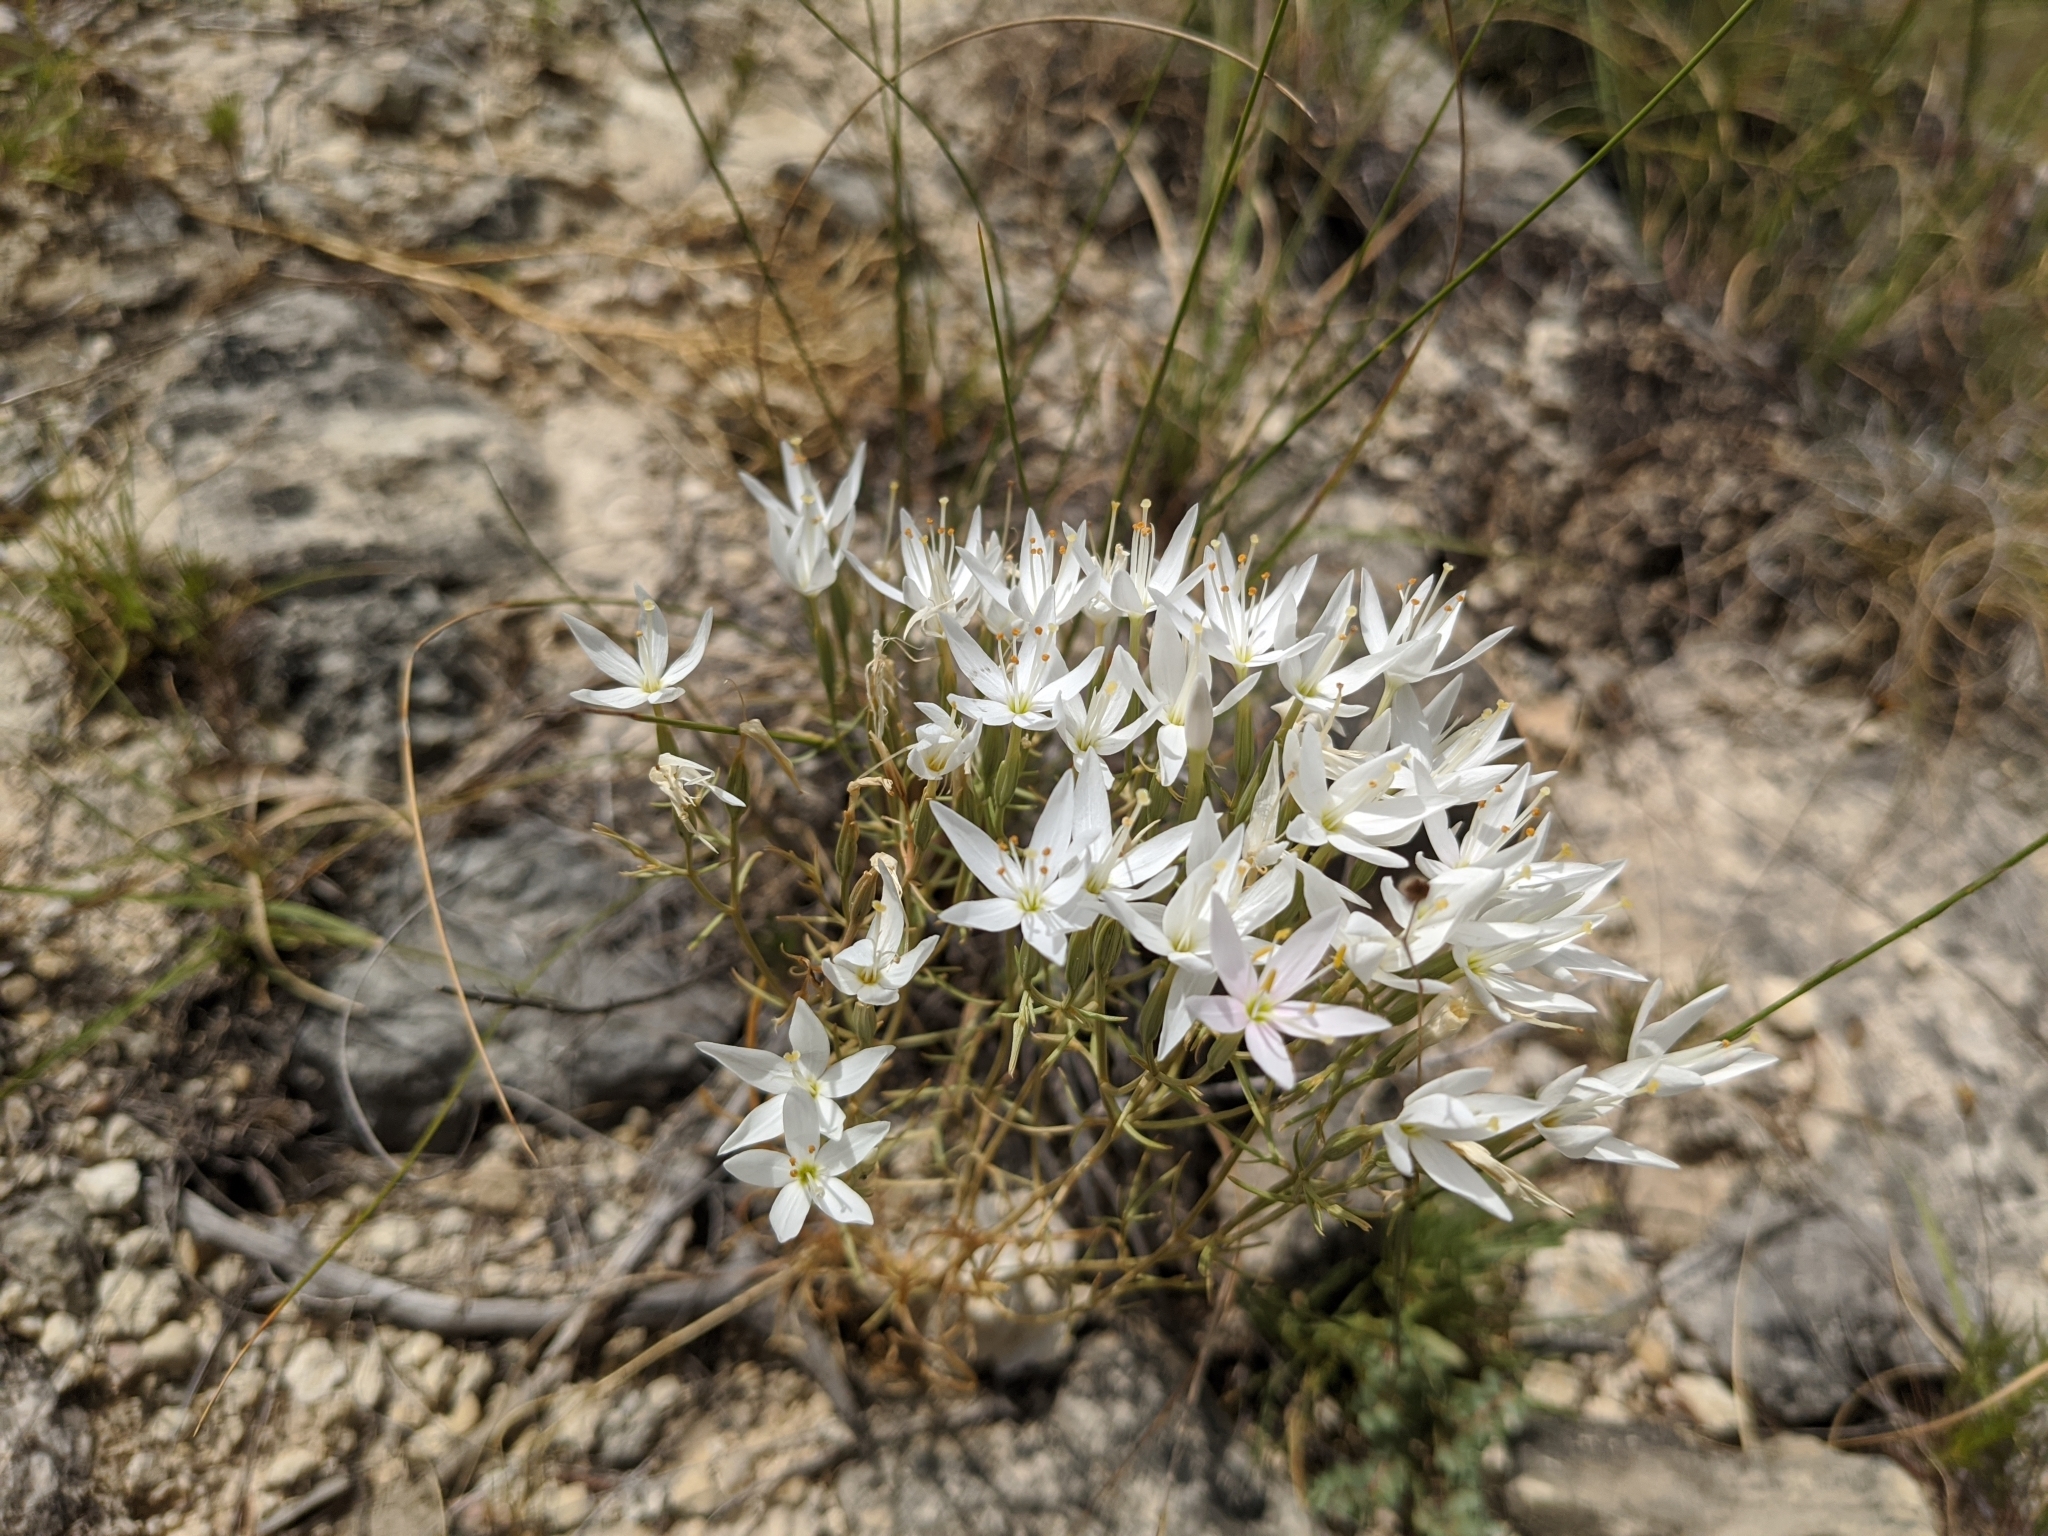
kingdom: Plantae
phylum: Tracheophyta
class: Magnoliopsida
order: Gentianales
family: Gentianaceae
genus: Zeltnera
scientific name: Zeltnera beyrichii
